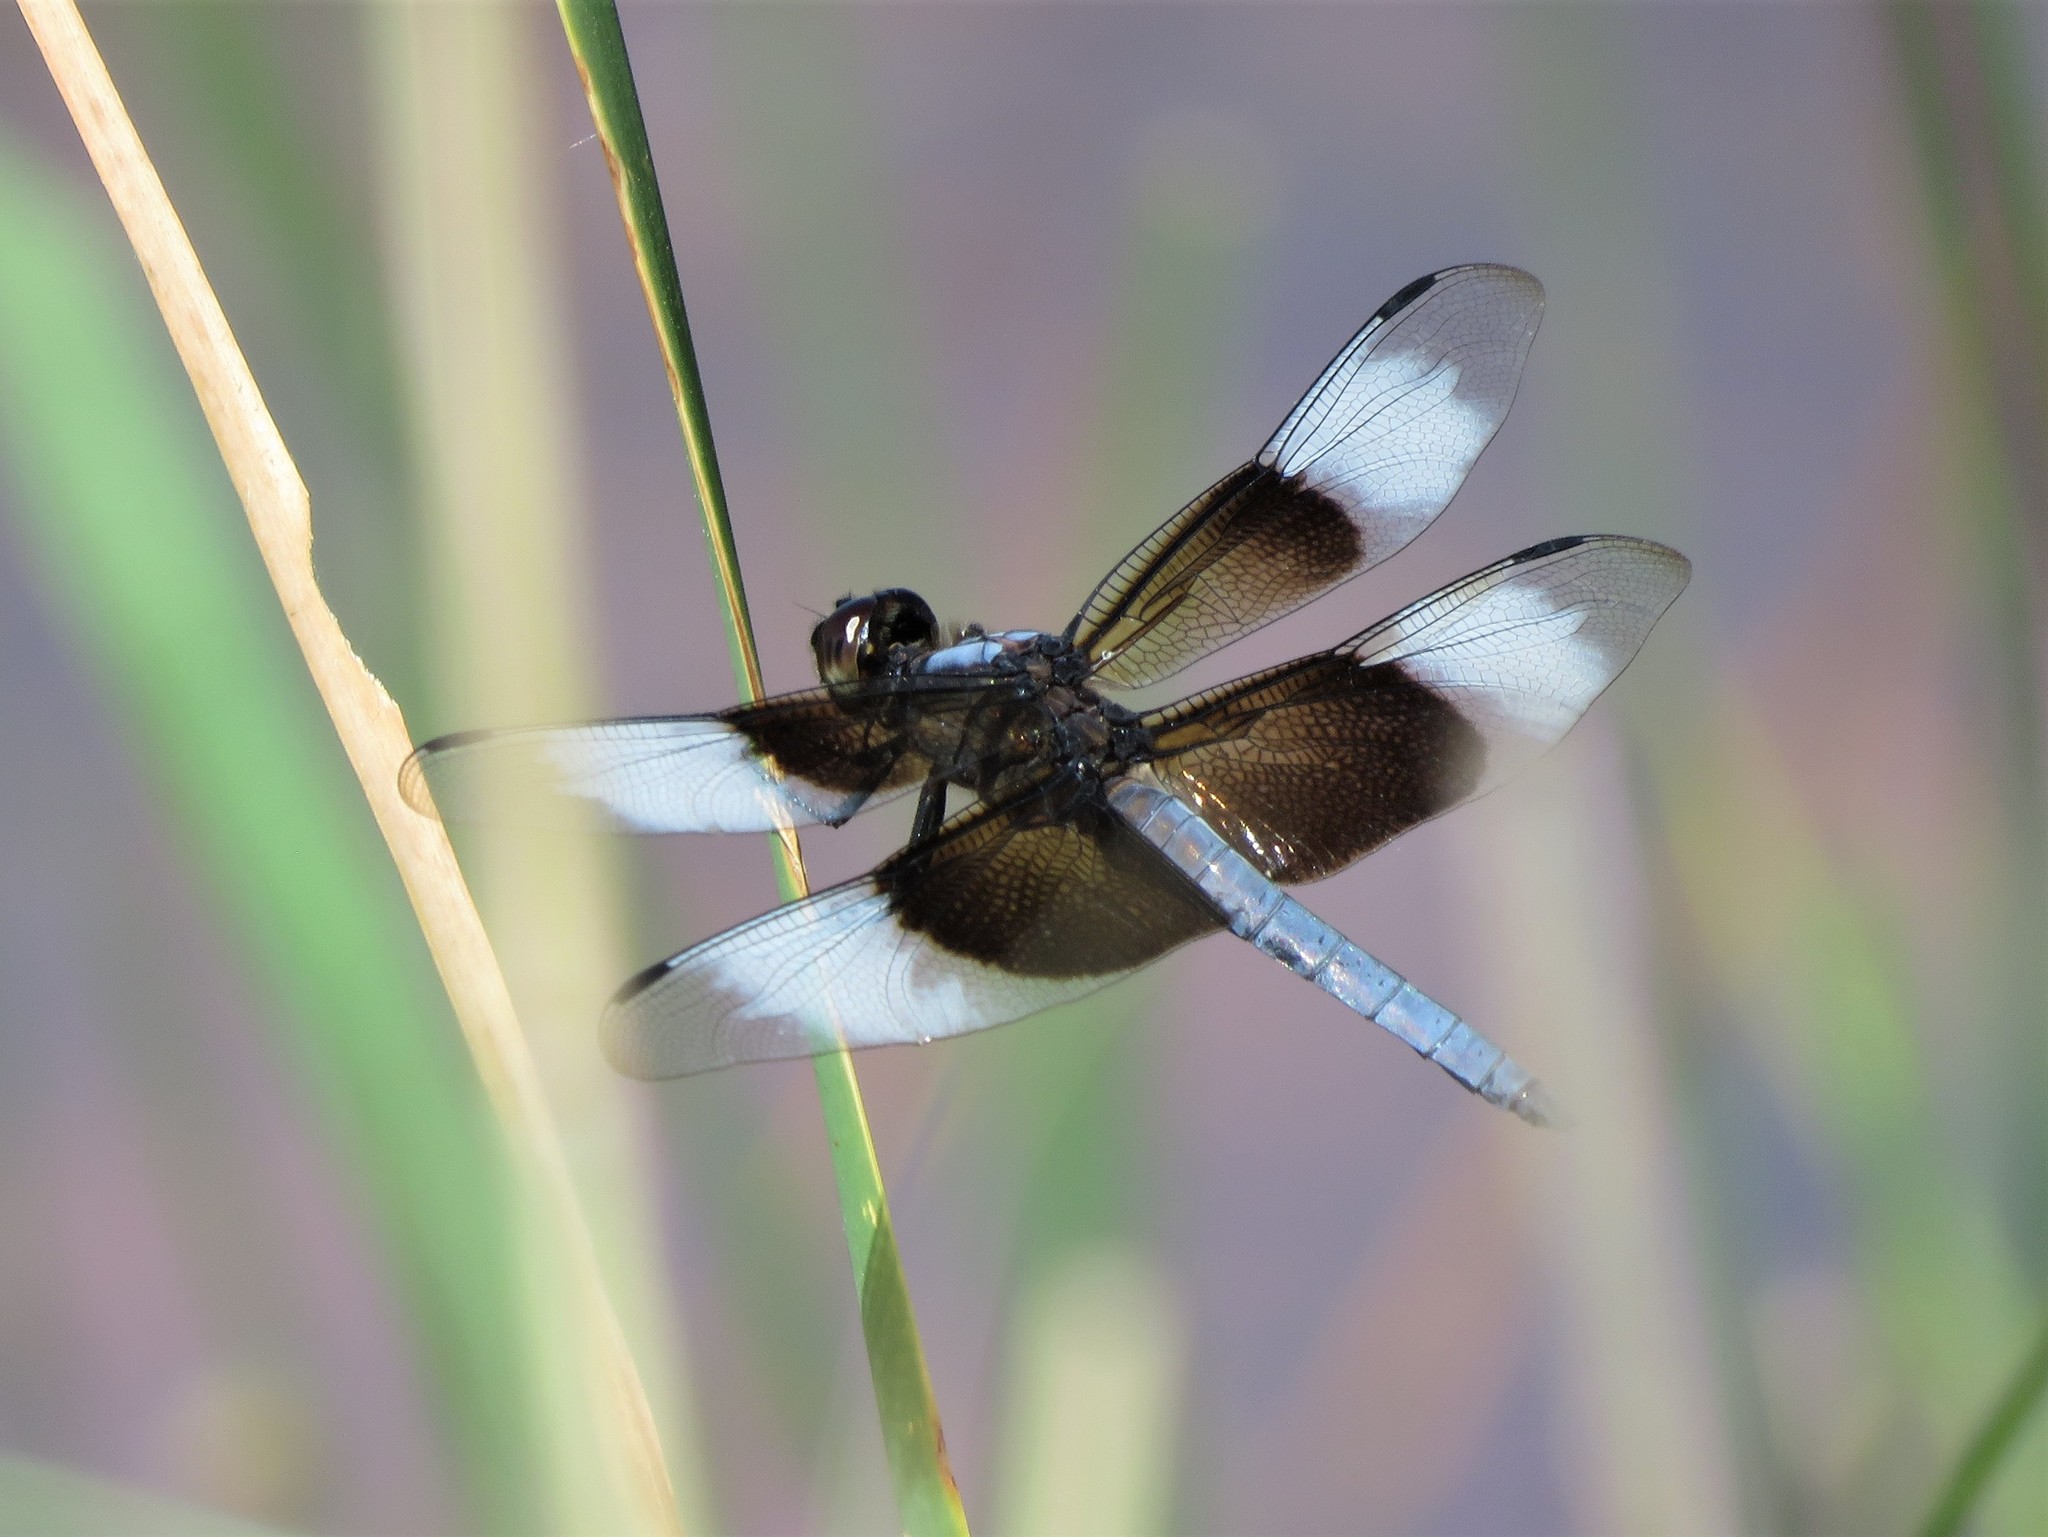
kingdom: Animalia
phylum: Arthropoda
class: Insecta
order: Odonata
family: Libellulidae
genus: Libellula
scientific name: Libellula luctuosa
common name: Widow skimmer
